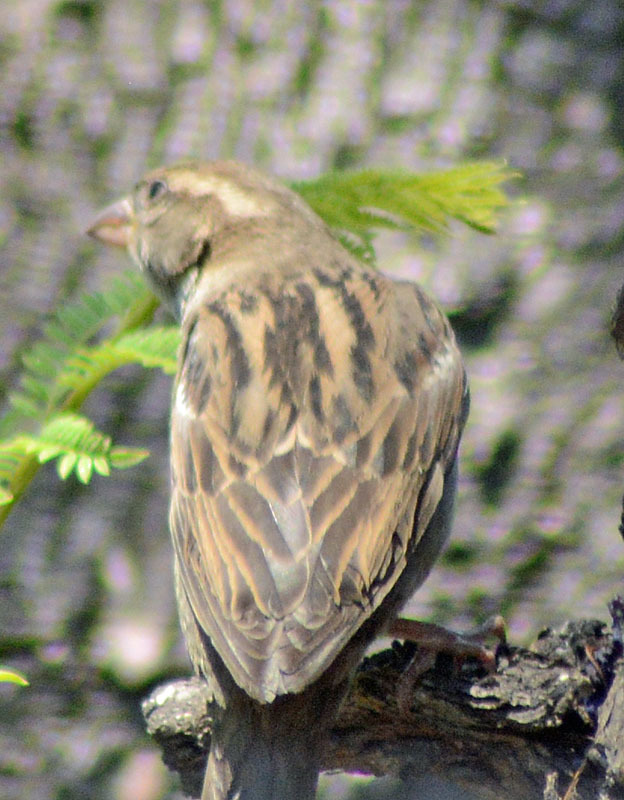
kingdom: Animalia
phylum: Chordata
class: Aves
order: Passeriformes
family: Passeridae
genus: Passer
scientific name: Passer domesticus
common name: House sparrow
